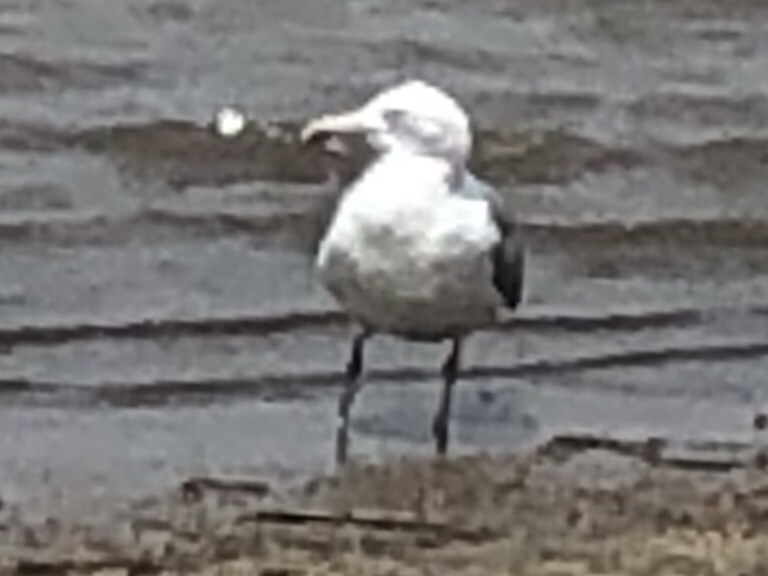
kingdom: Animalia
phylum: Chordata
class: Aves
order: Charadriiformes
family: Laridae
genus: Larus
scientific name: Larus argentatus
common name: Herring gull
